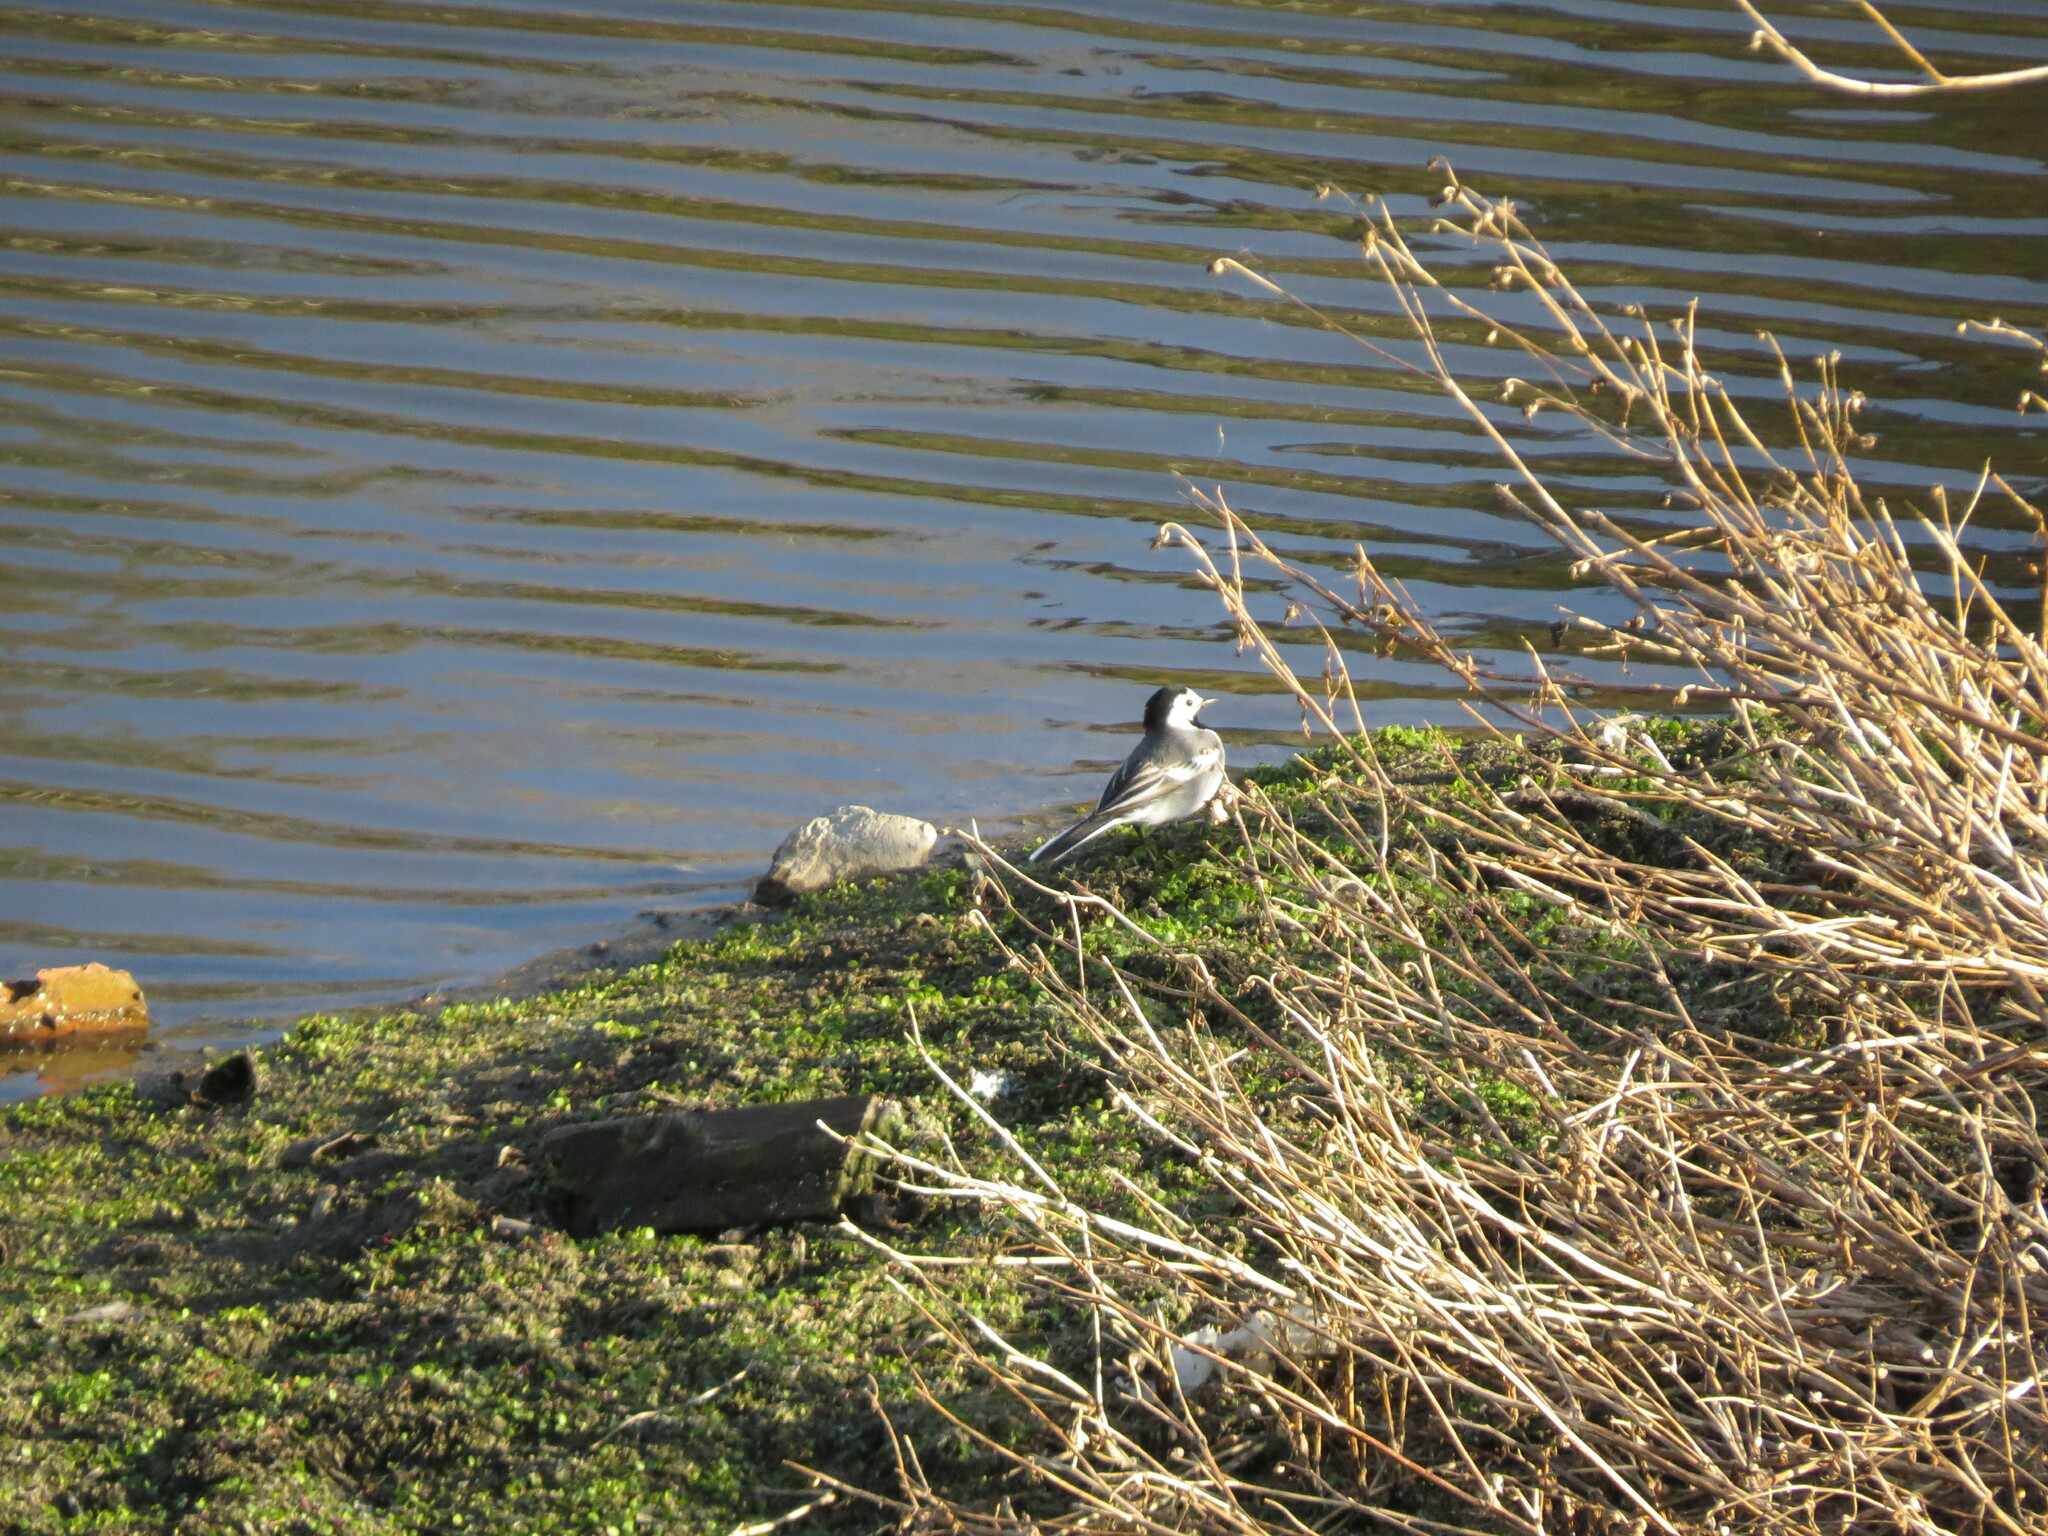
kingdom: Animalia
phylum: Chordata
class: Aves
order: Passeriformes
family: Motacillidae
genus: Motacilla
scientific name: Motacilla alba
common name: White wagtail
